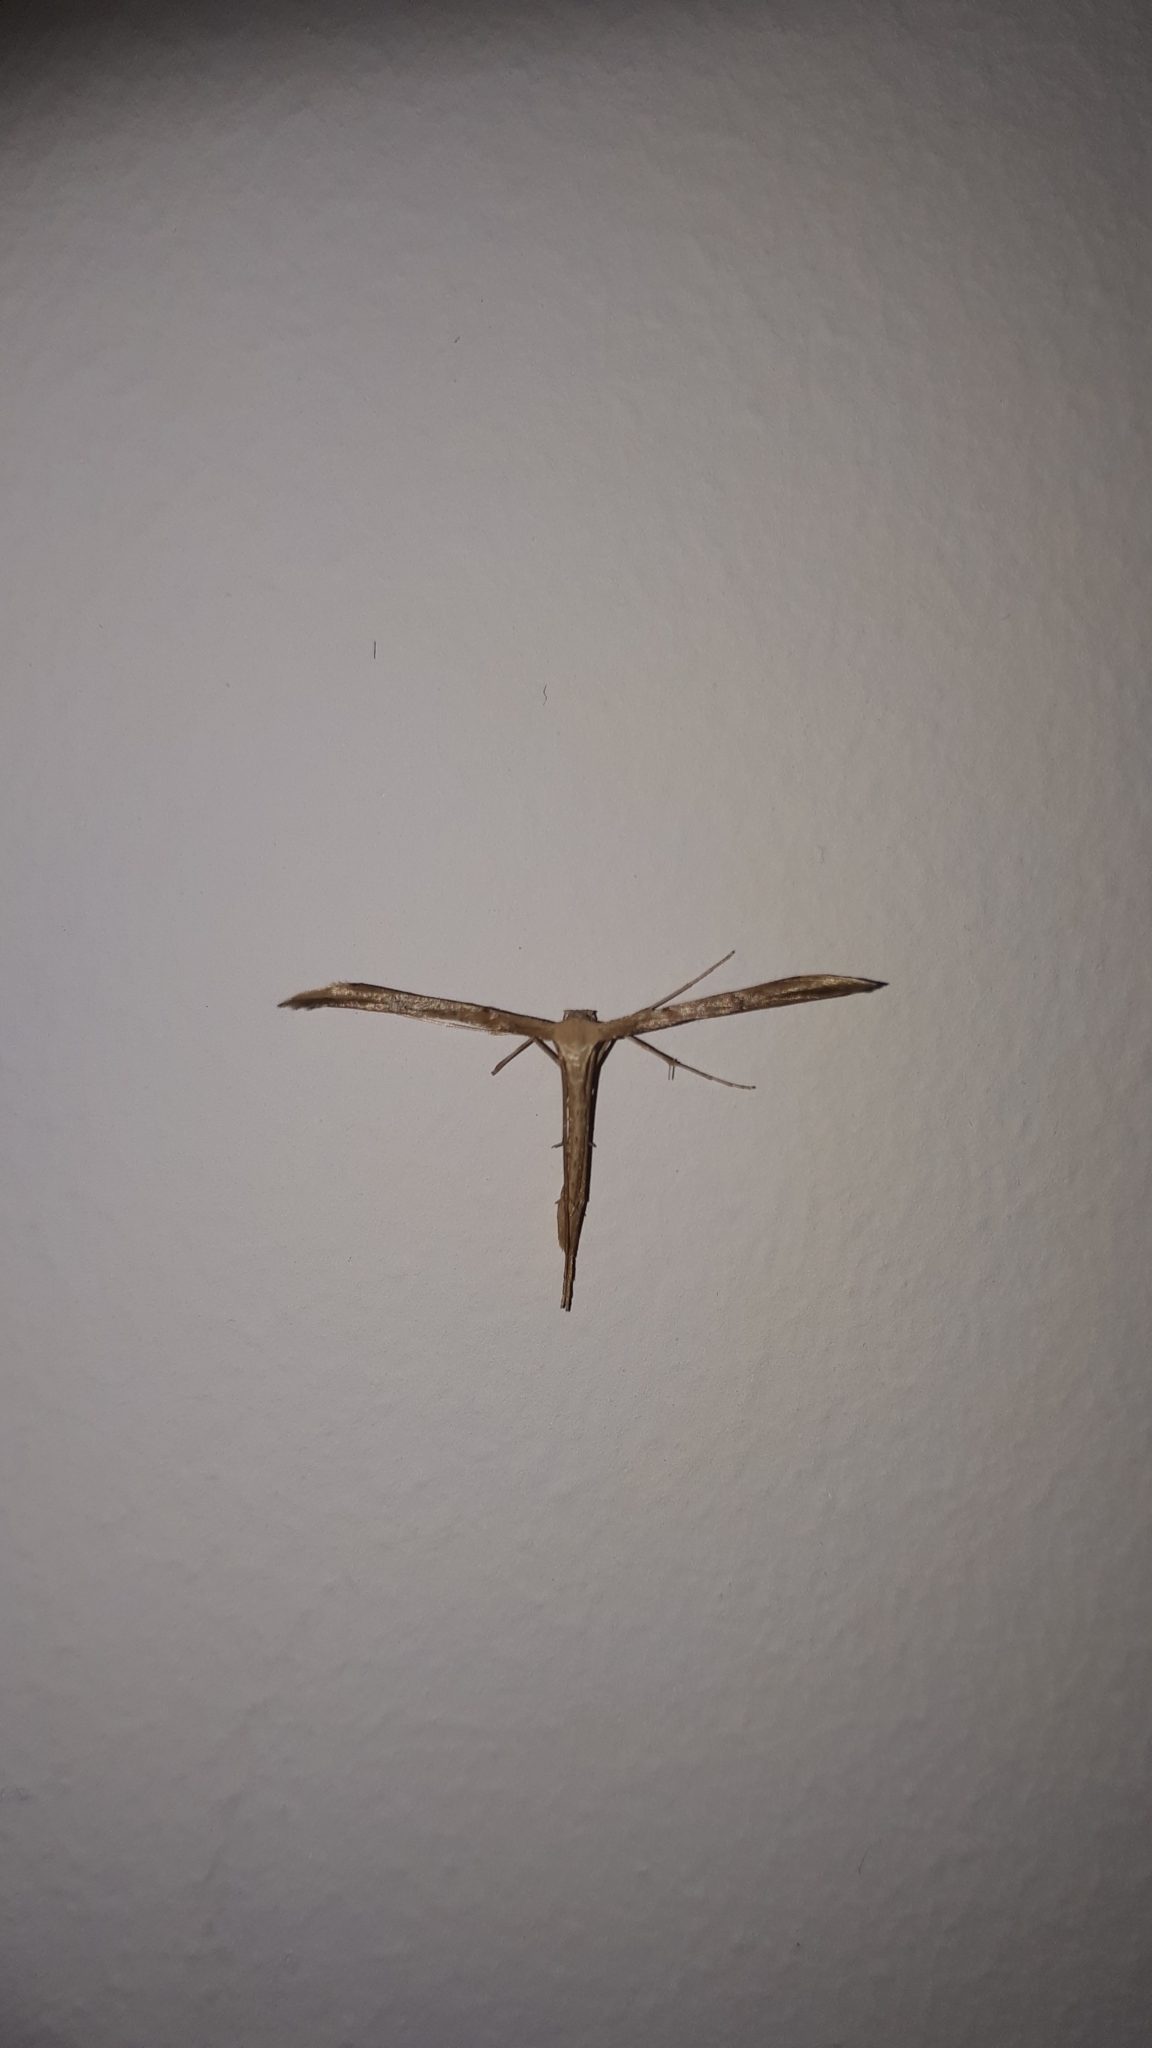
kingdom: Animalia
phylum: Arthropoda
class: Insecta
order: Lepidoptera
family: Pterophoridae
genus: Emmelina
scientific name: Emmelina monodactyla
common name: Common plume
